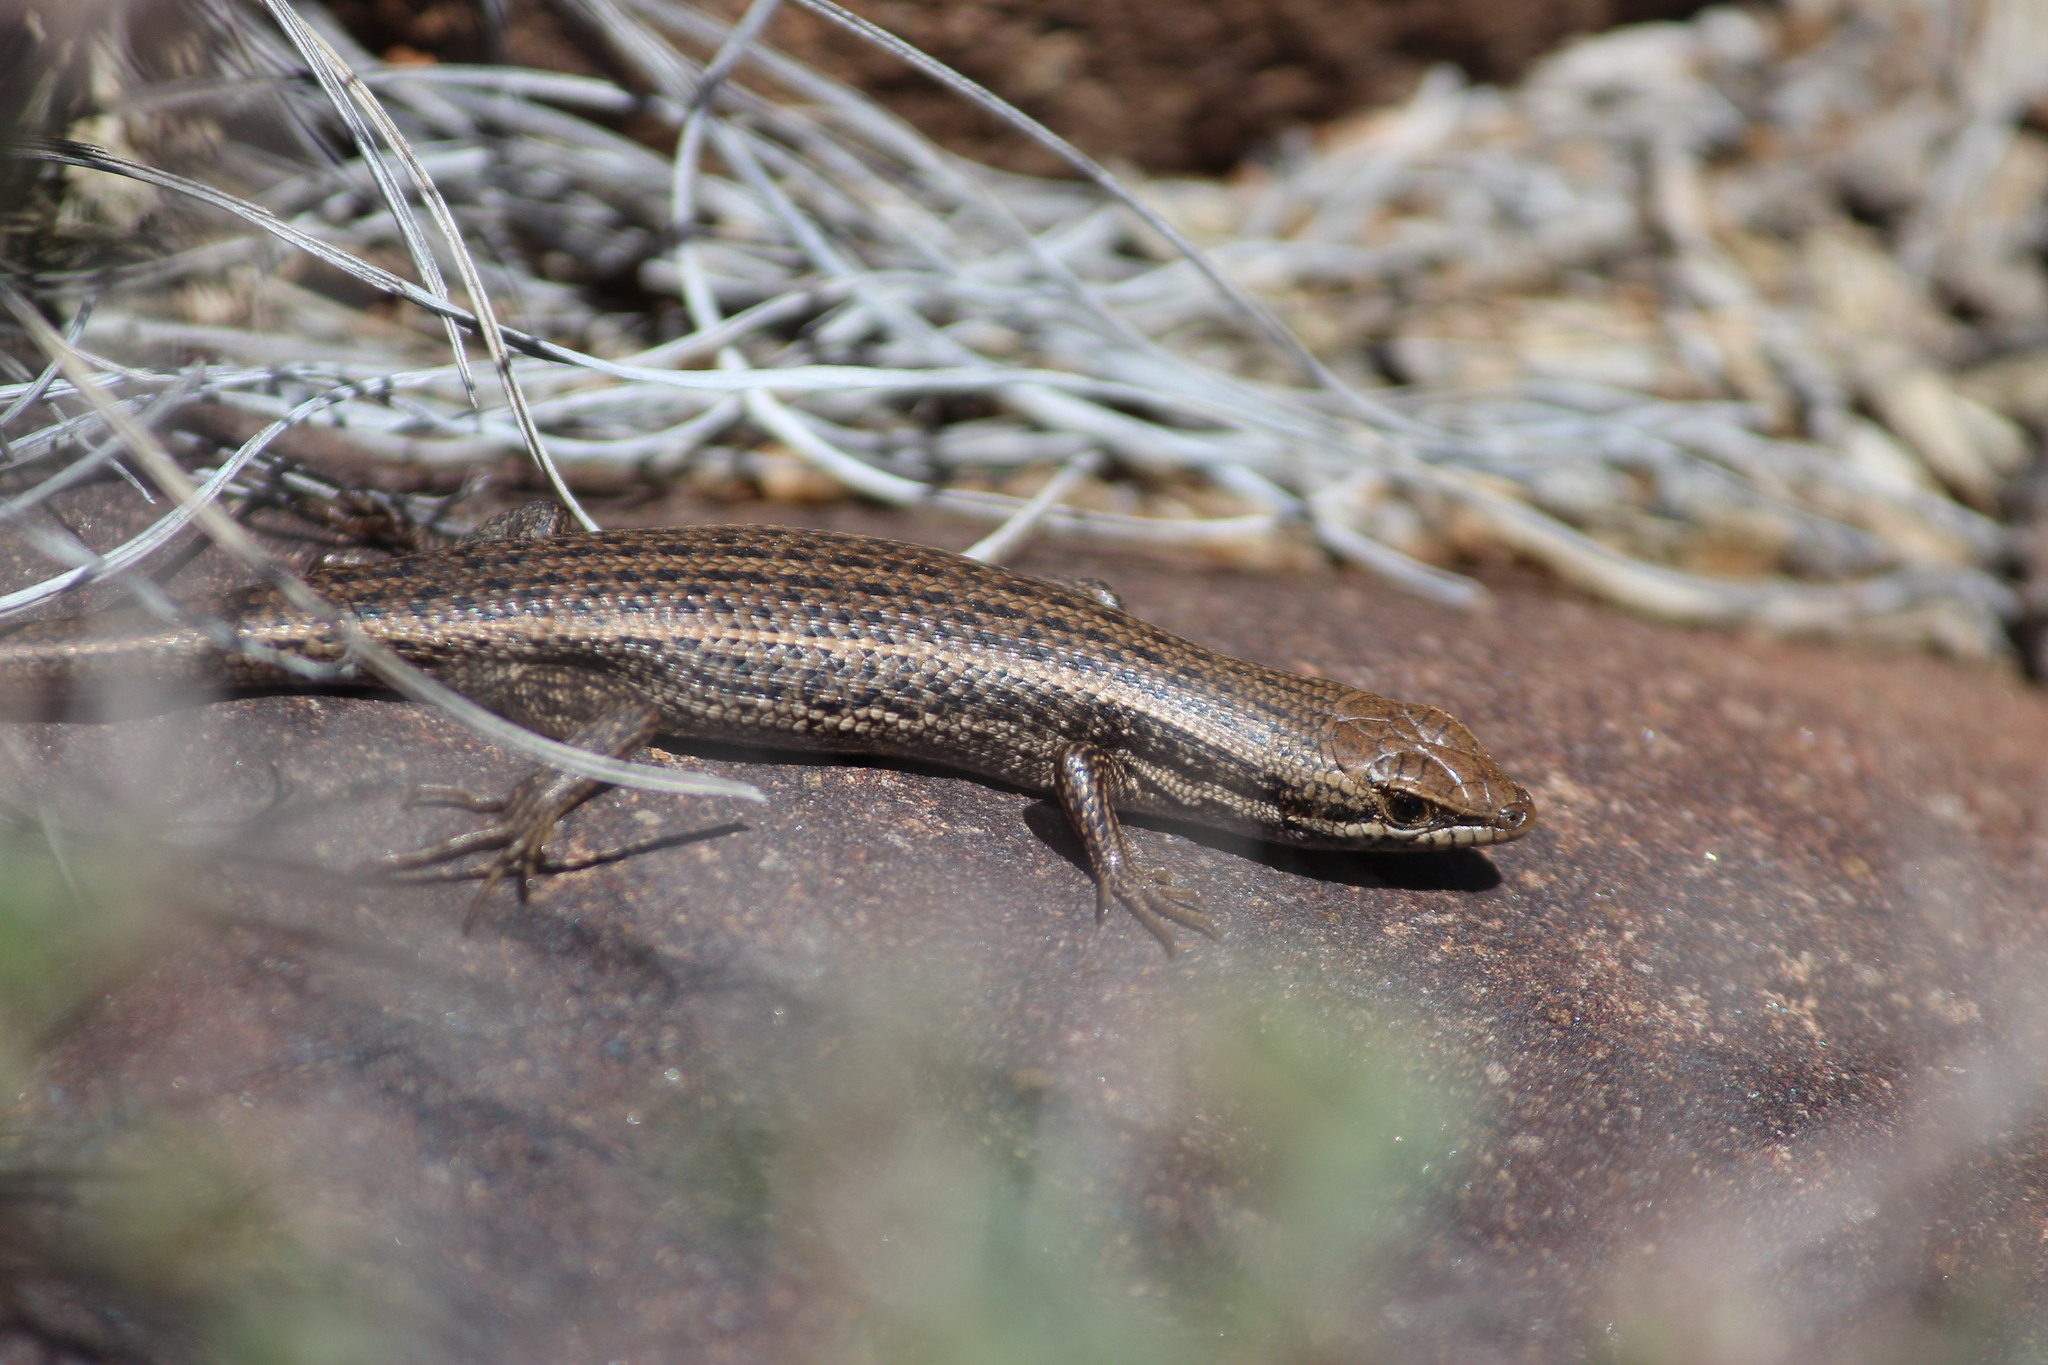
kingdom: Animalia
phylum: Chordata
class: Squamata
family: Scincidae
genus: Trachylepis
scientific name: Trachylepis variegata
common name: Variegated skink
